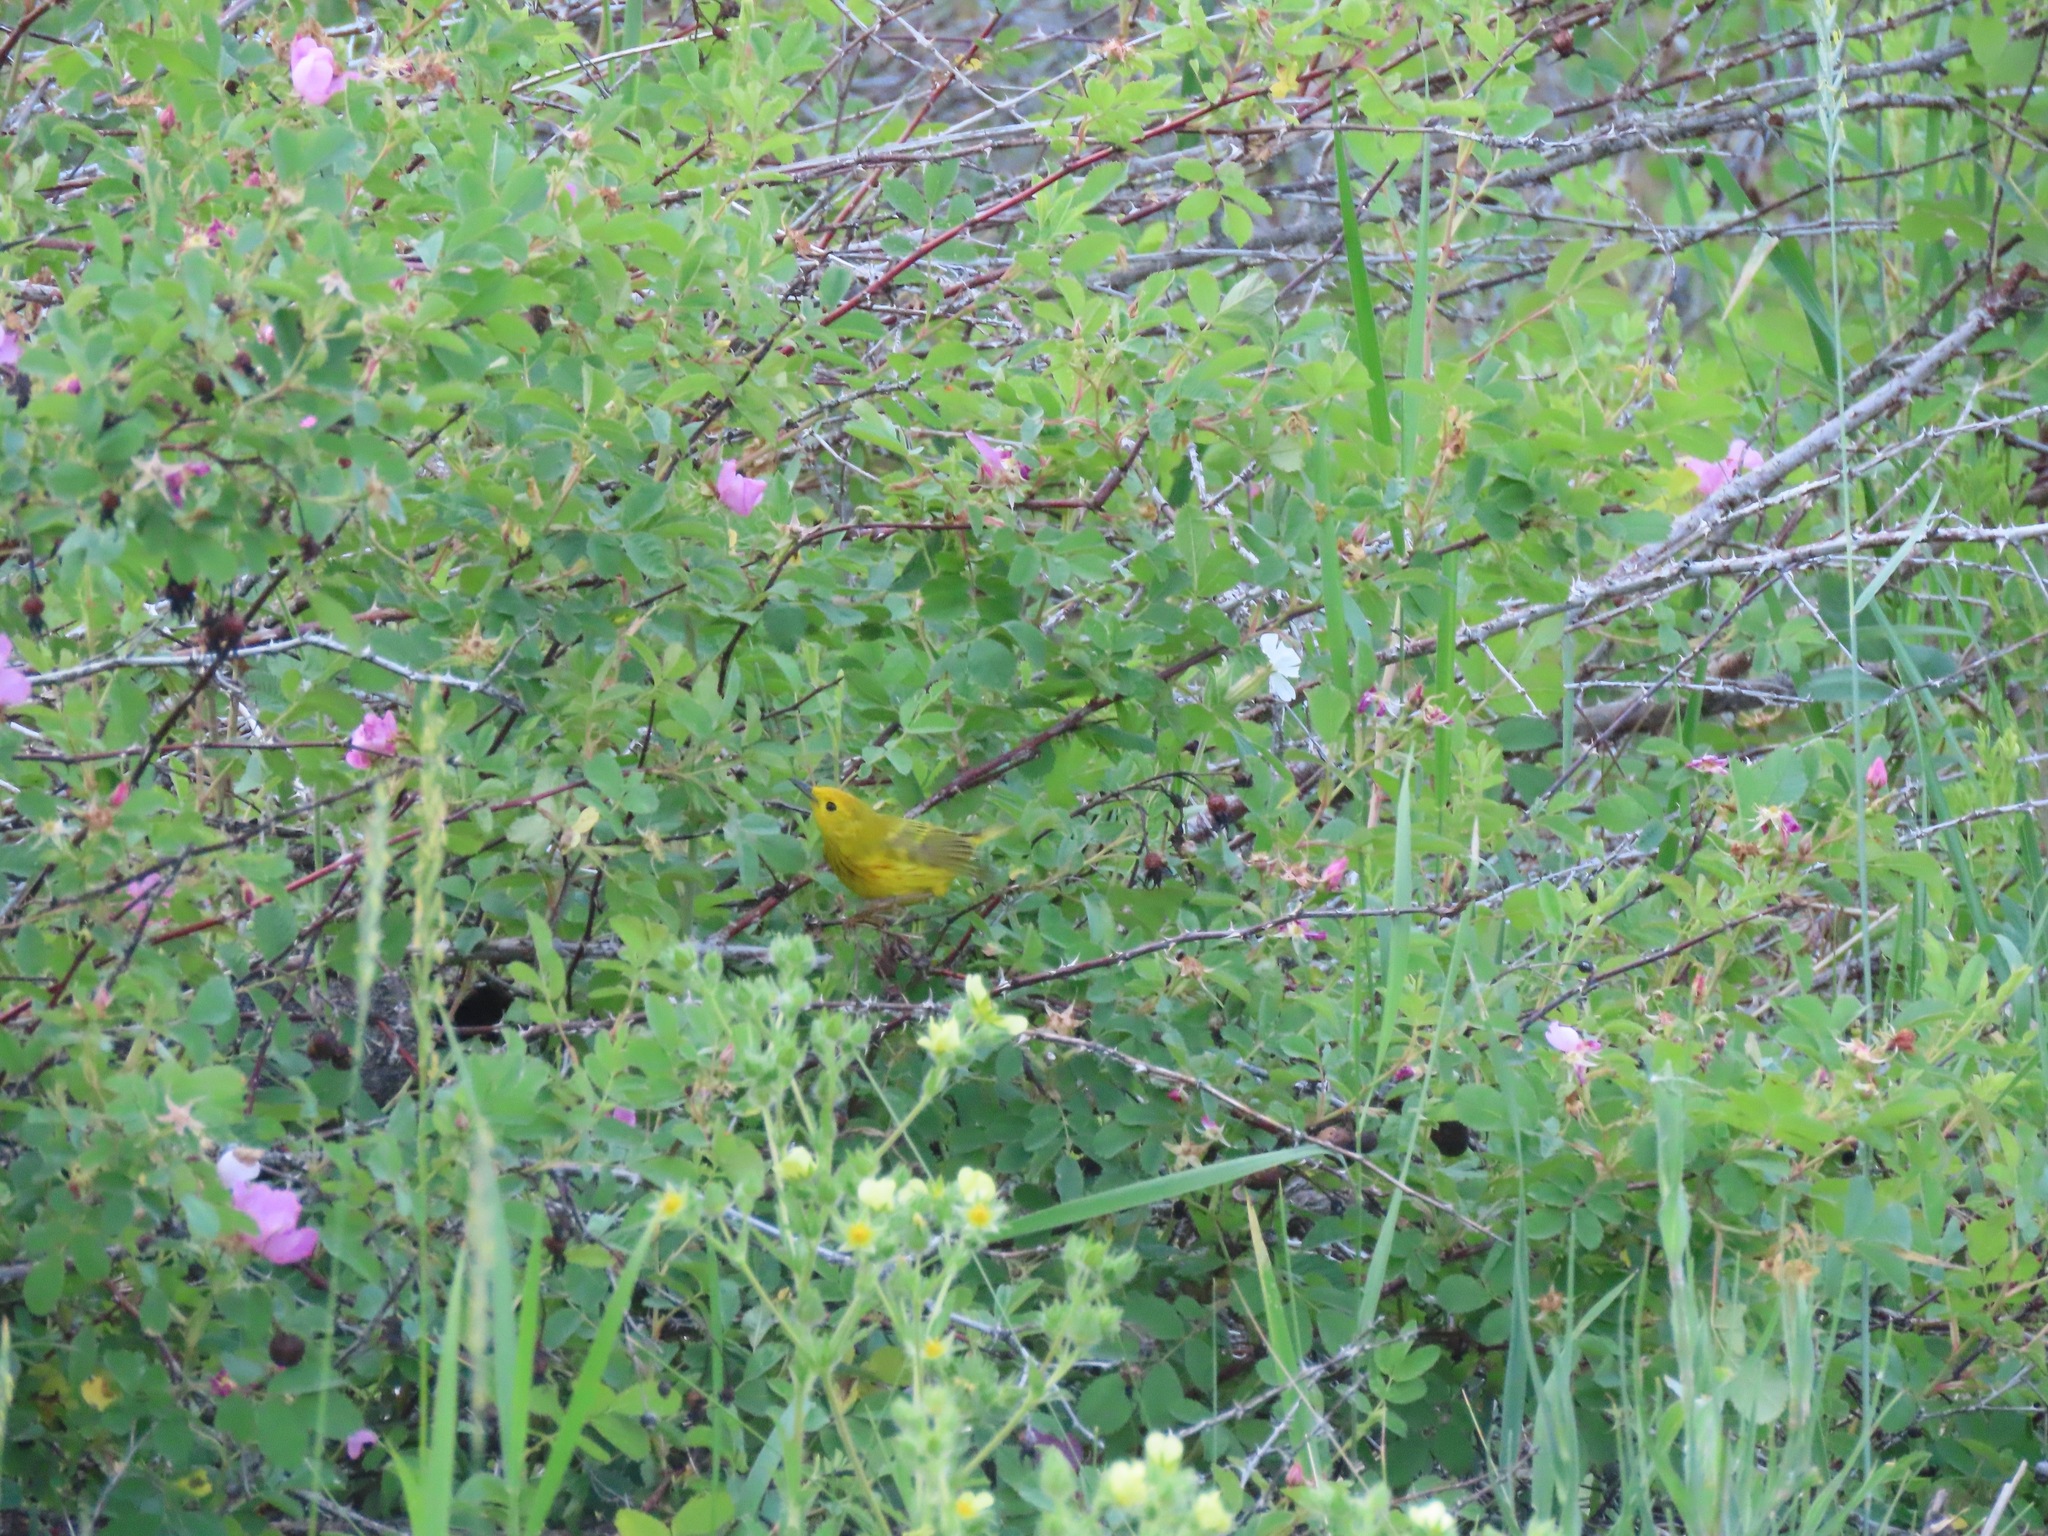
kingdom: Animalia
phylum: Chordata
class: Aves
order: Passeriformes
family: Parulidae
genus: Setophaga
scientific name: Setophaga petechia
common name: Yellow warbler
